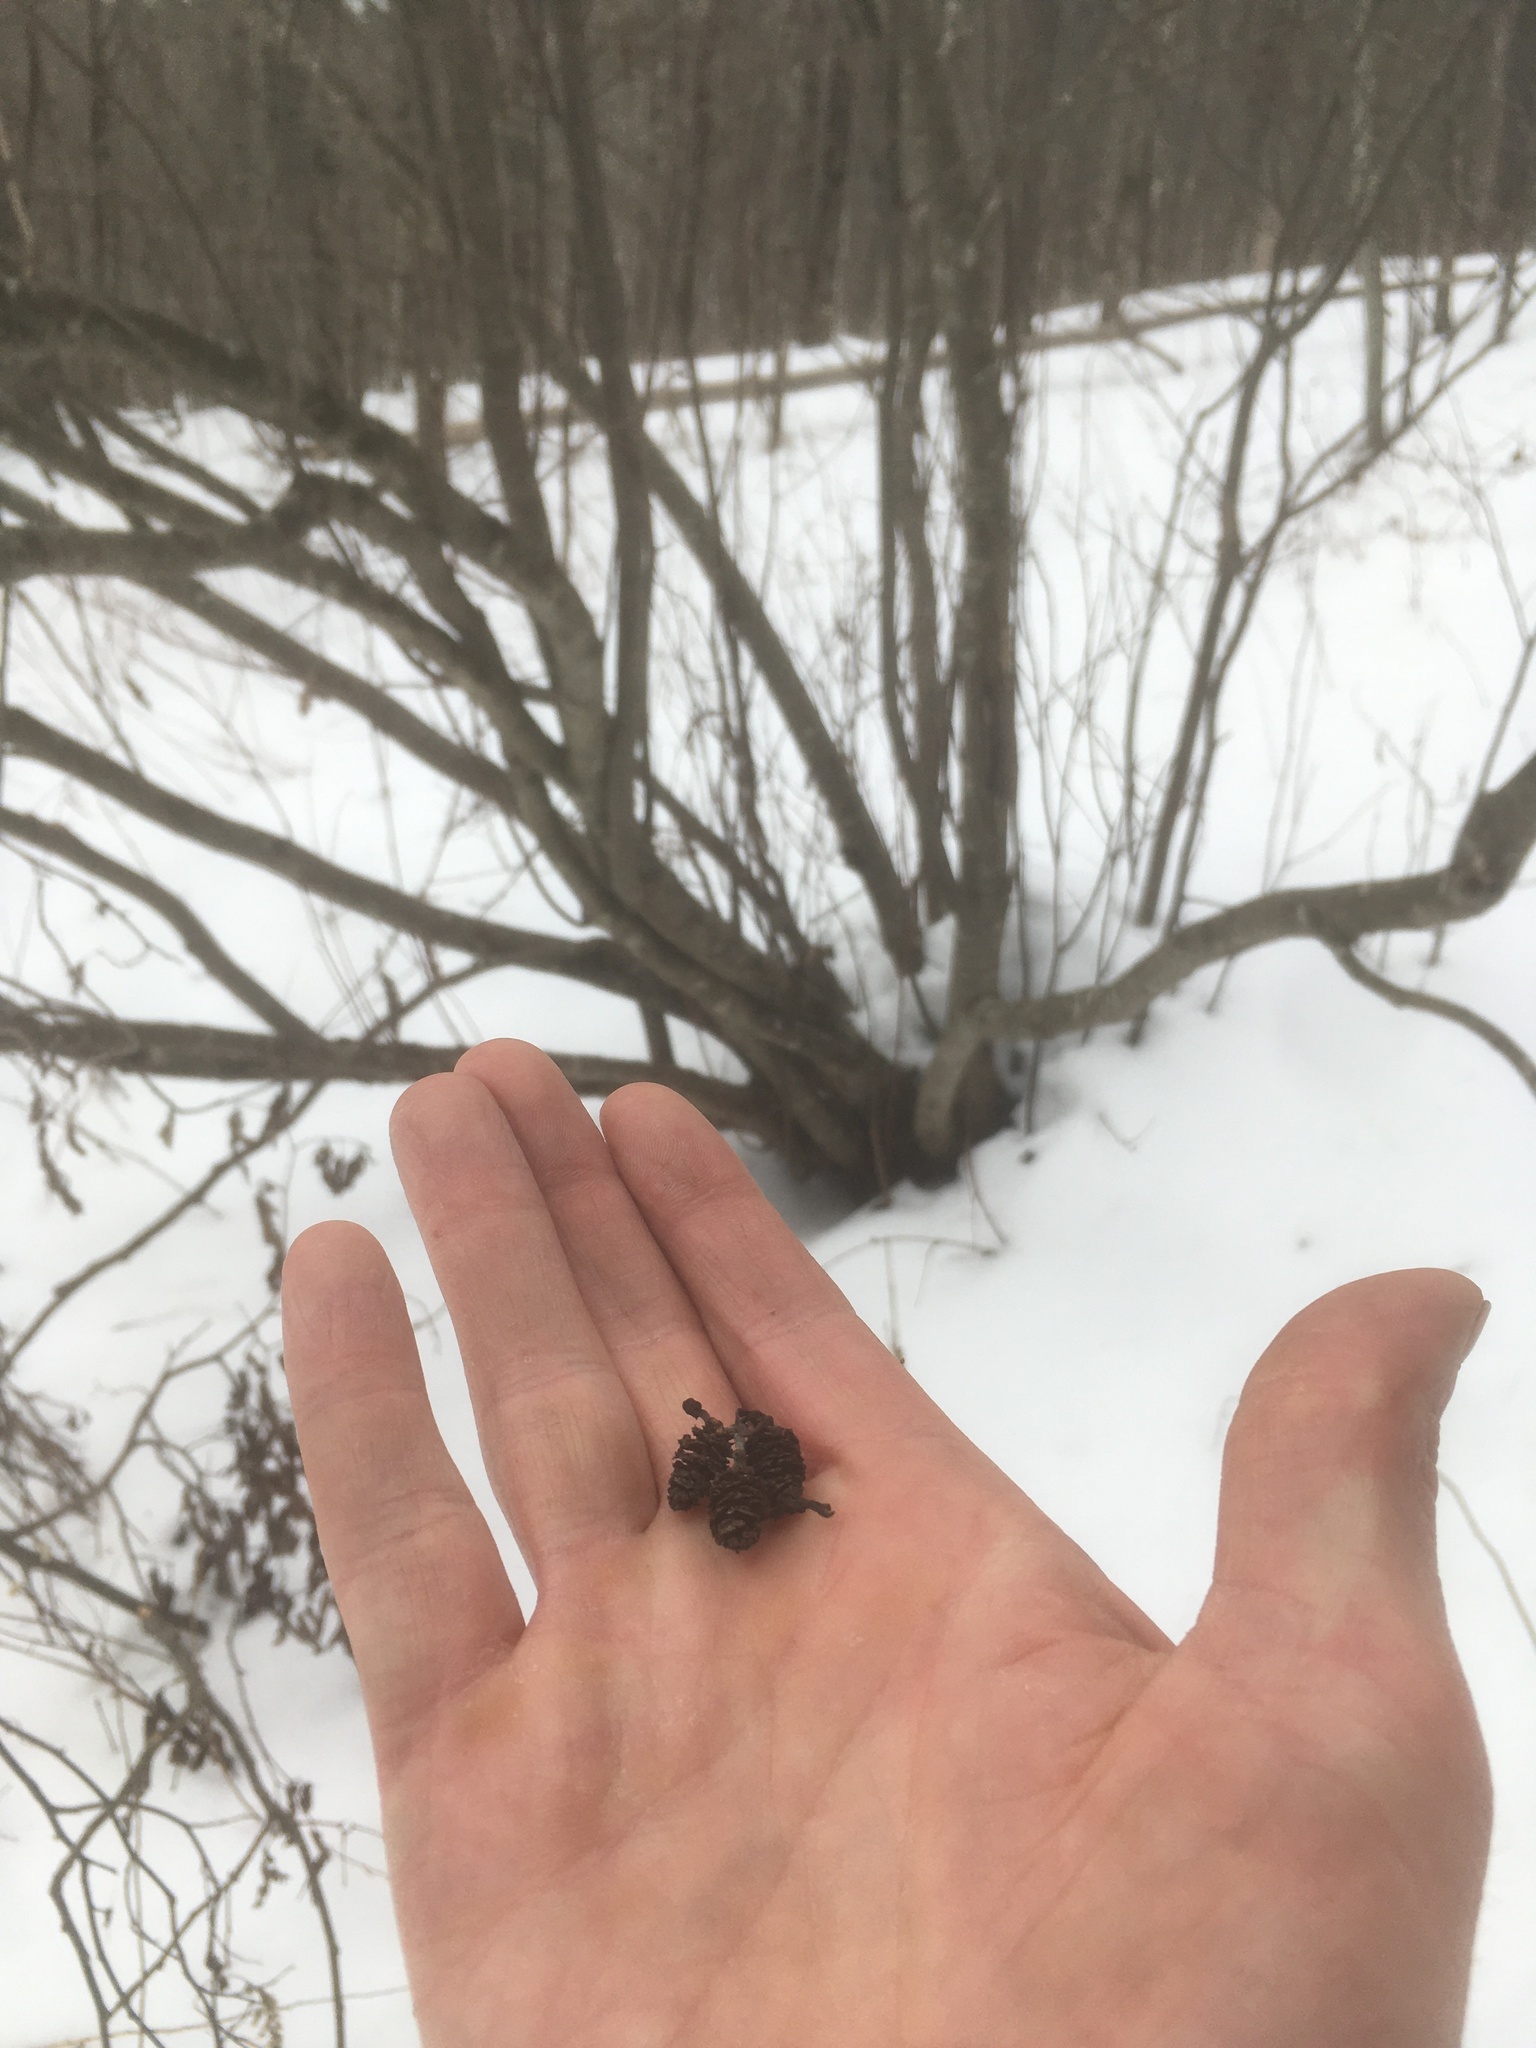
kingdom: Plantae
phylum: Tracheophyta
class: Magnoliopsida
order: Fagales
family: Betulaceae
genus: Alnus
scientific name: Alnus incana
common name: Grey alder
